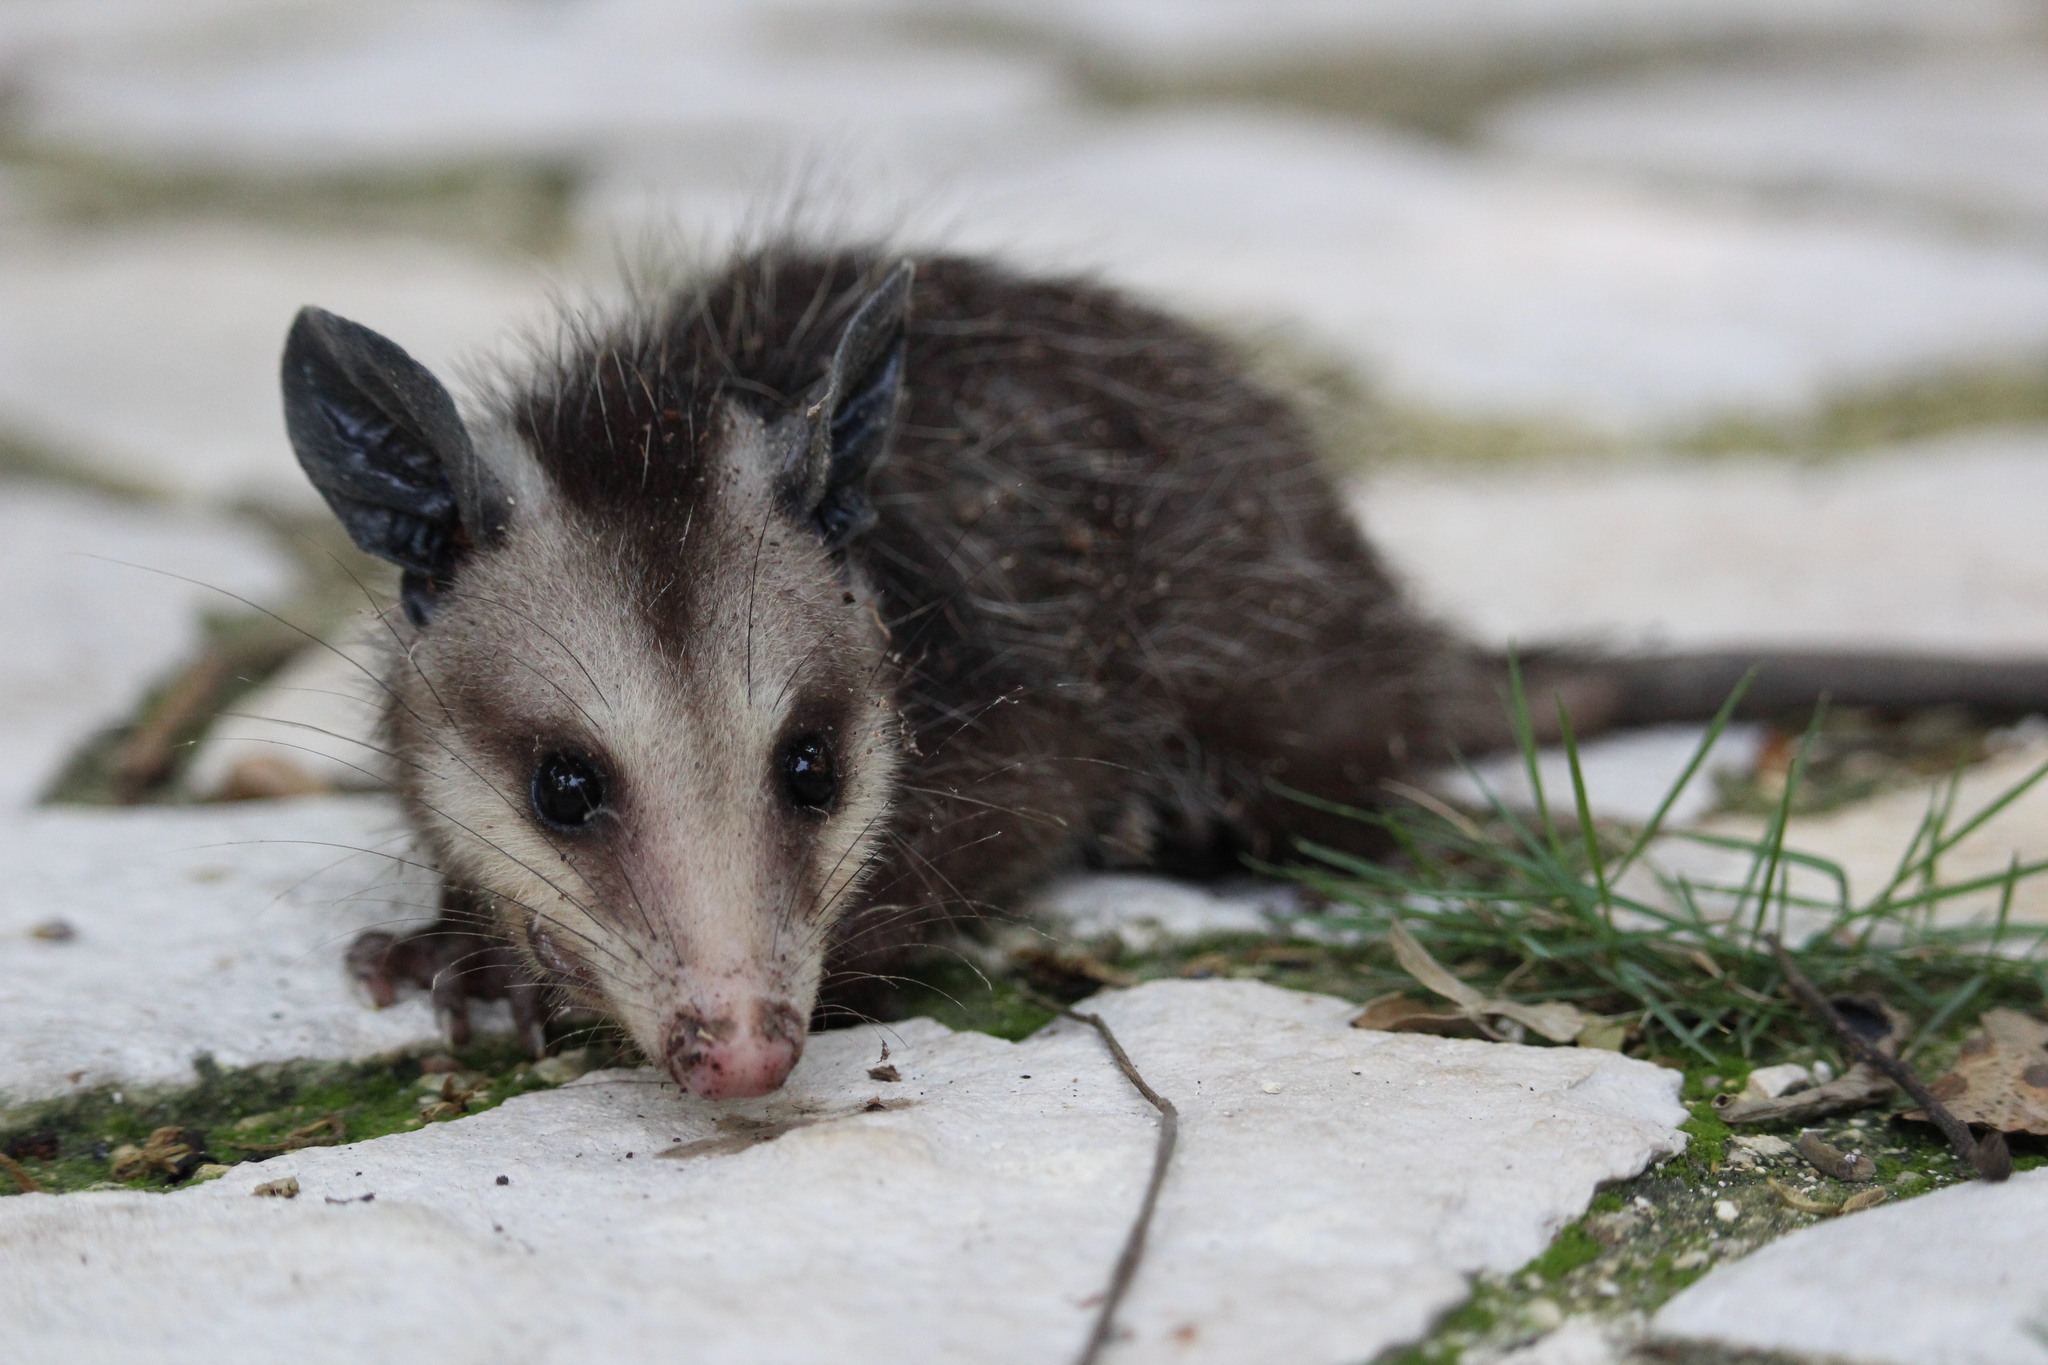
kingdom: Animalia
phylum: Chordata
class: Mammalia
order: Didelphimorphia
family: Didelphidae
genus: Didelphis
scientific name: Didelphis marsupialis
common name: Common opossum
